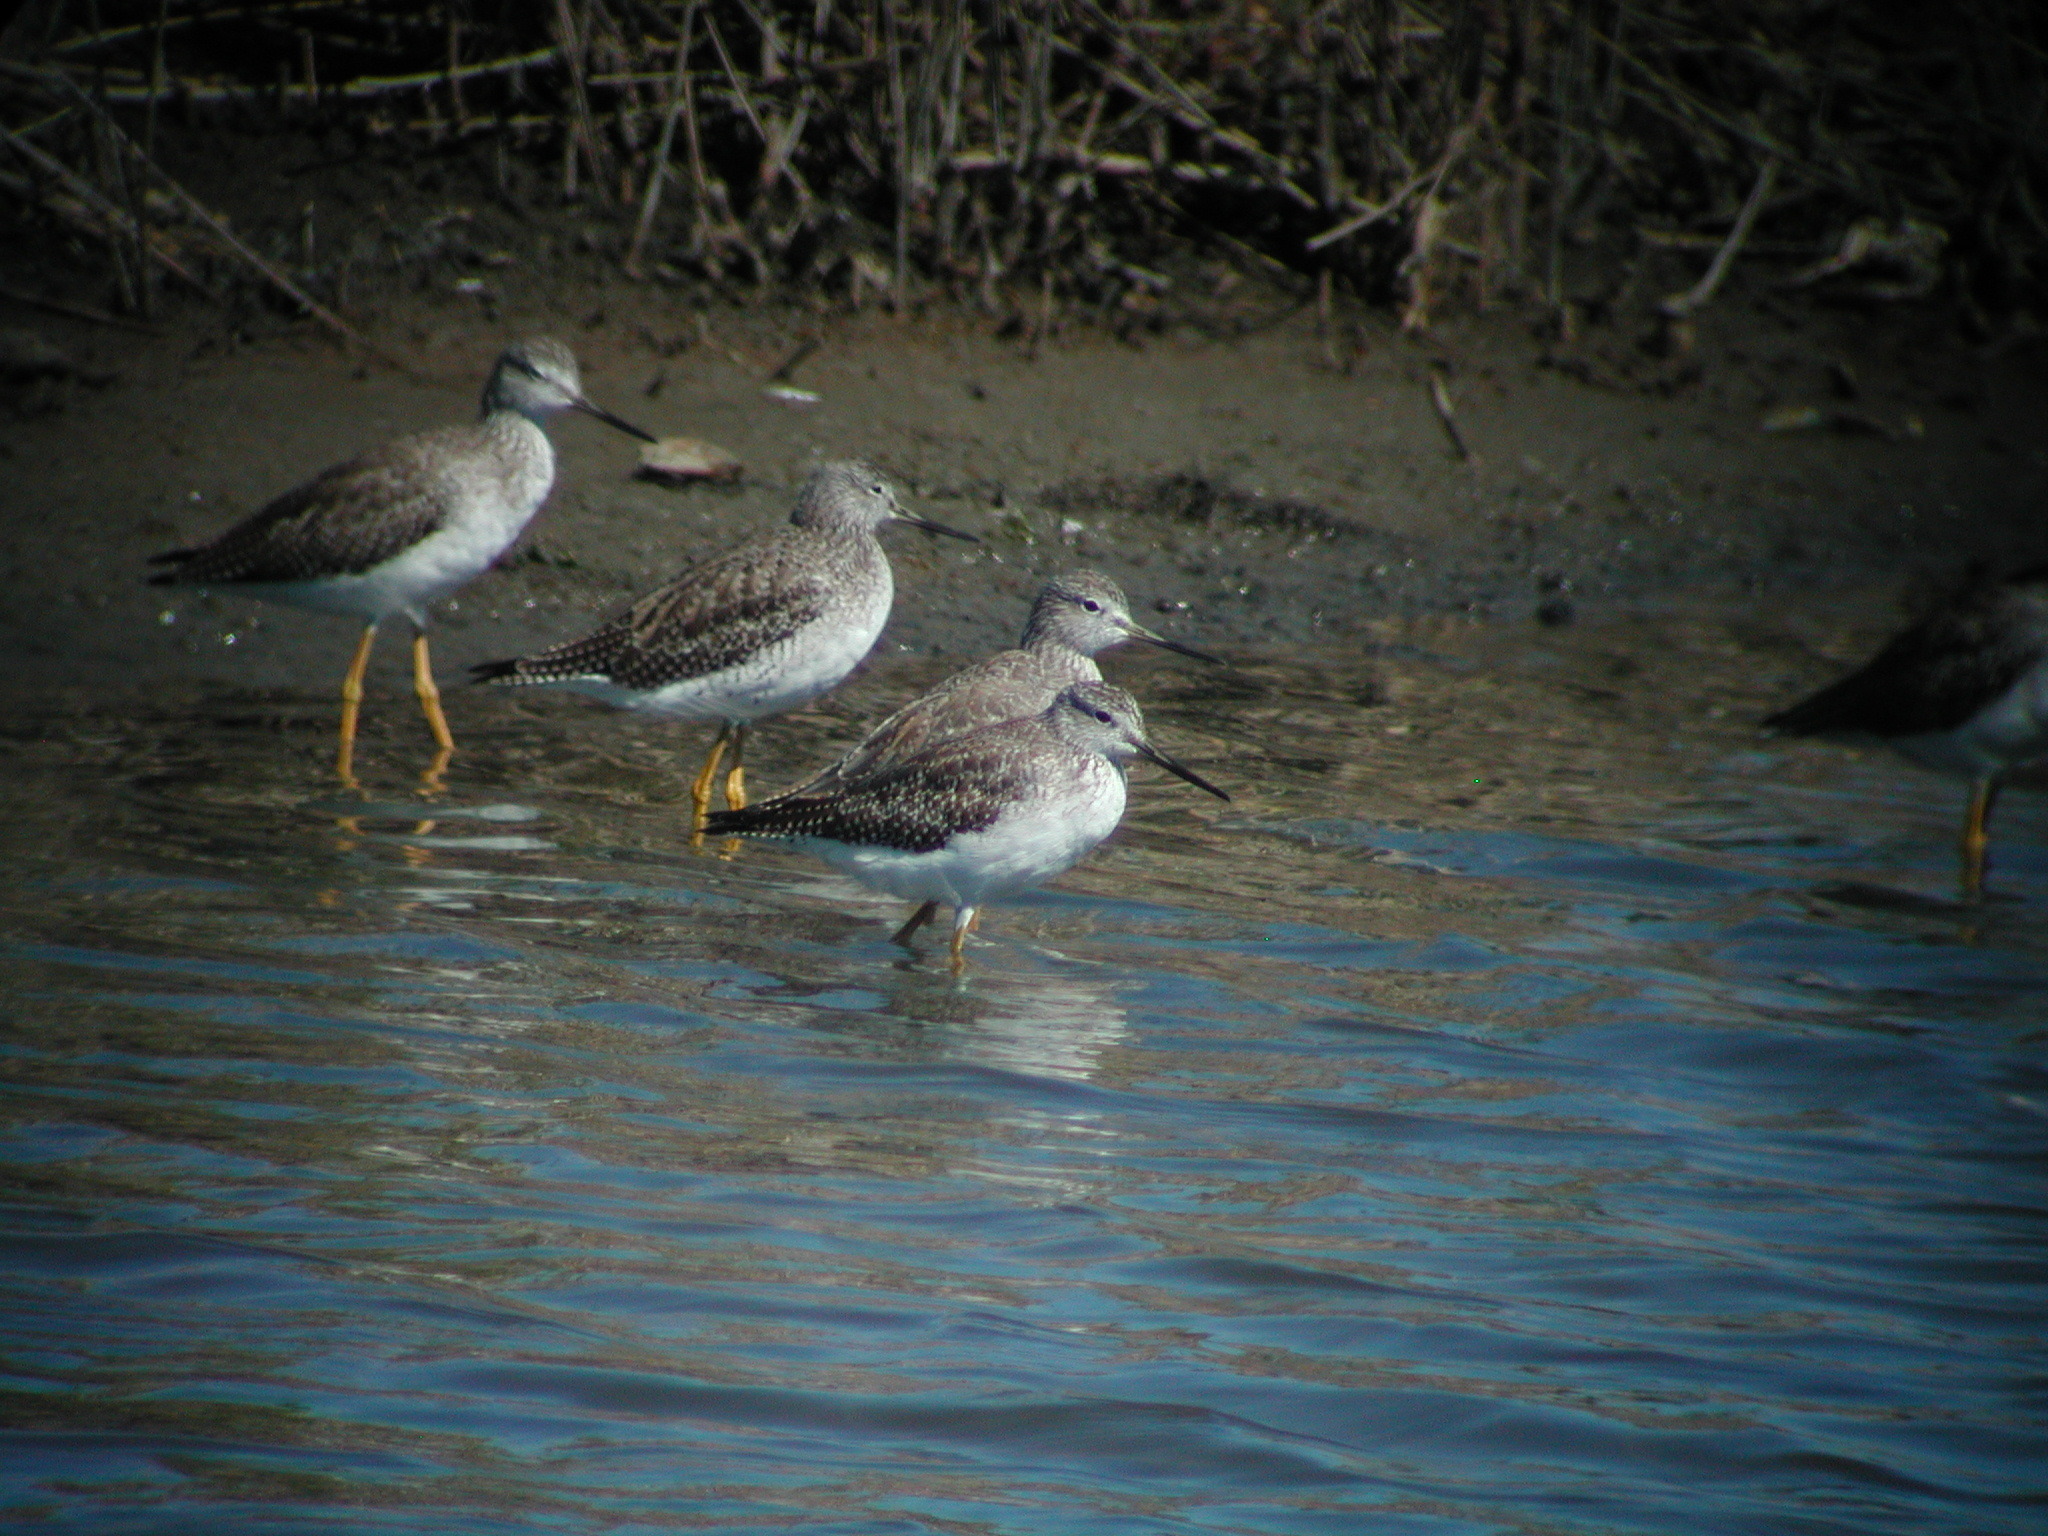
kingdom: Animalia
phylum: Chordata
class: Aves
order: Charadriiformes
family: Scolopacidae
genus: Tringa
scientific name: Tringa melanoleuca
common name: Greater yellowlegs
